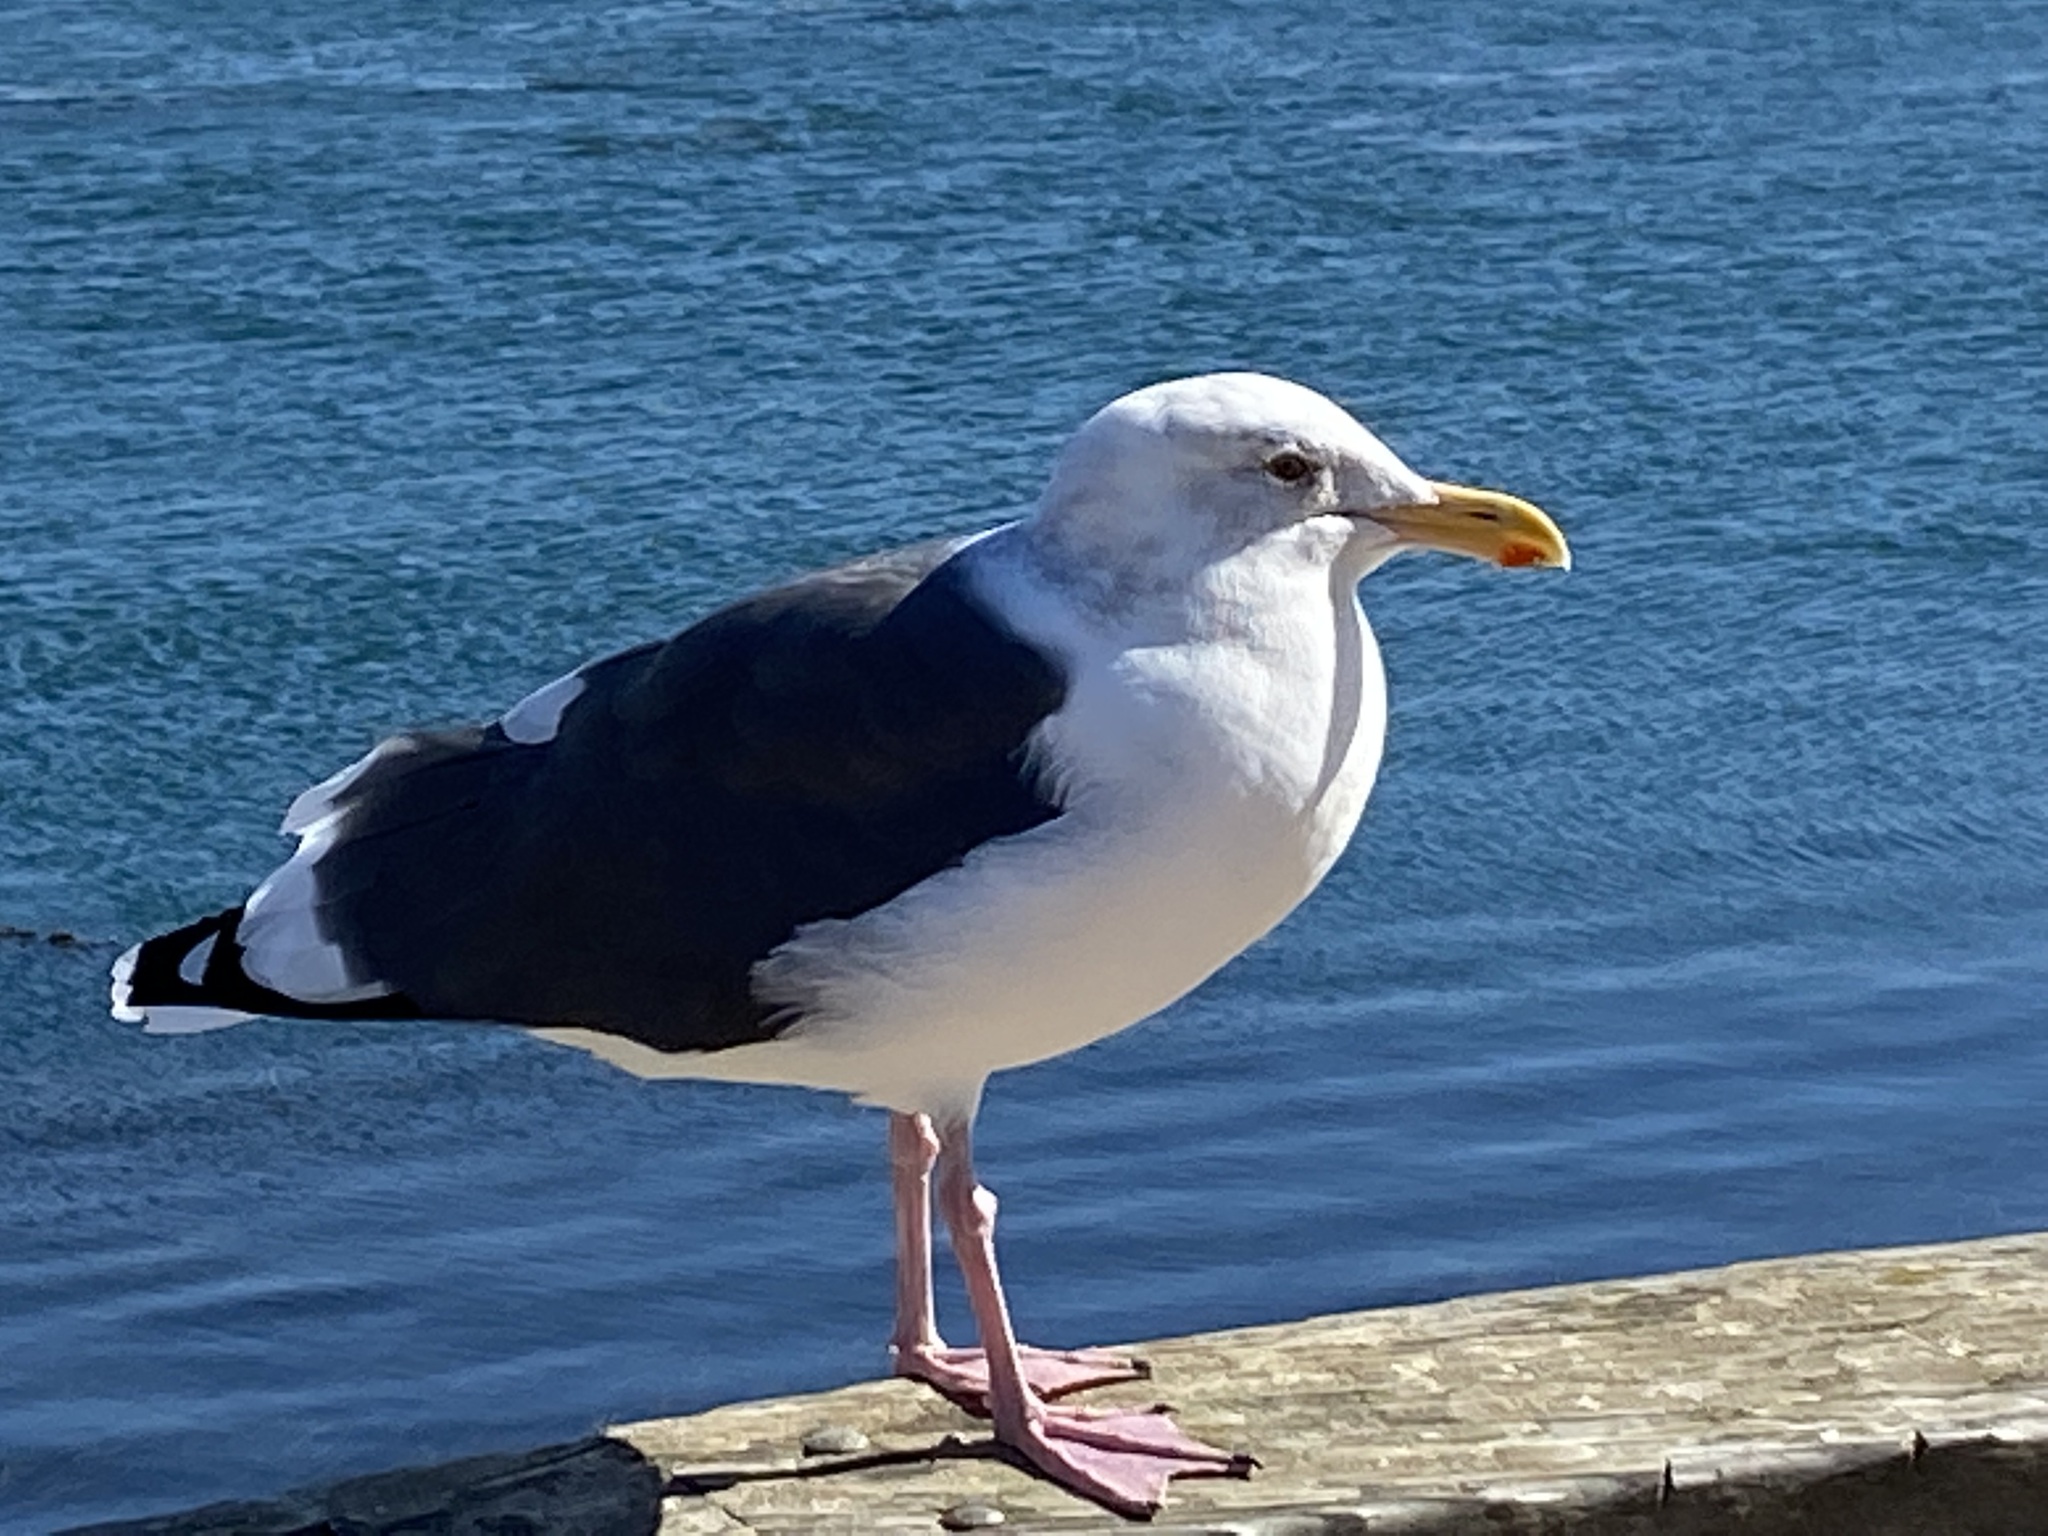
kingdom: Animalia
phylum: Chordata
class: Aves
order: Charadriiformes
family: Laridae
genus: Larus
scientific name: Larus occidentalis
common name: Western gull
